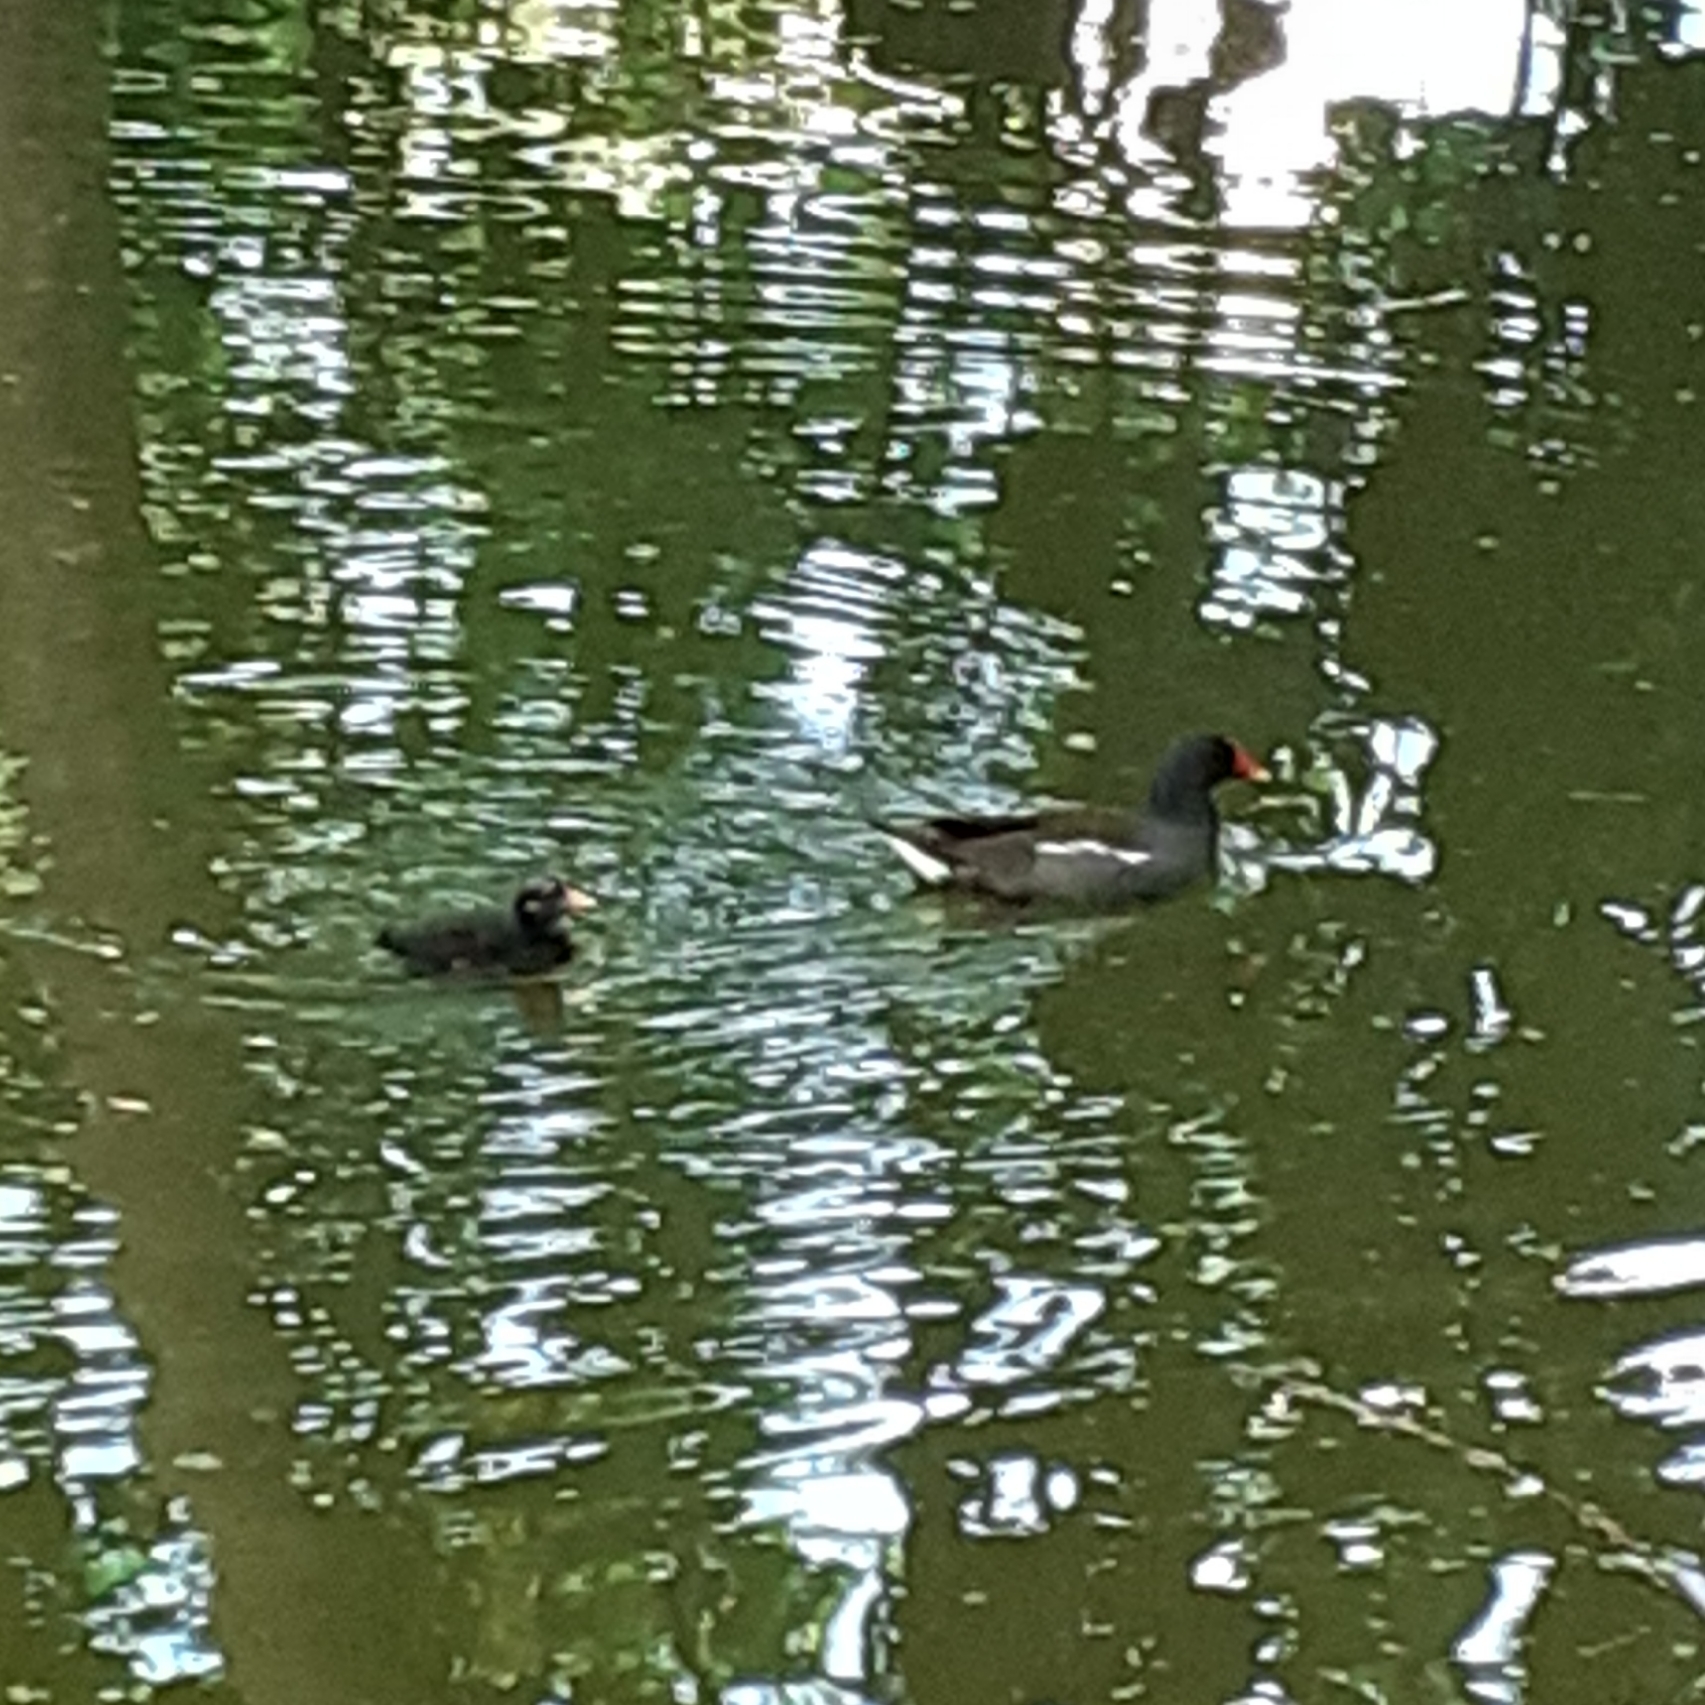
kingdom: Animalia
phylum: Chordata
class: Aves
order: Gruiformes
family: Rallidae
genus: Gallinula
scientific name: Gallinula chloropus
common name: Common moorhen
